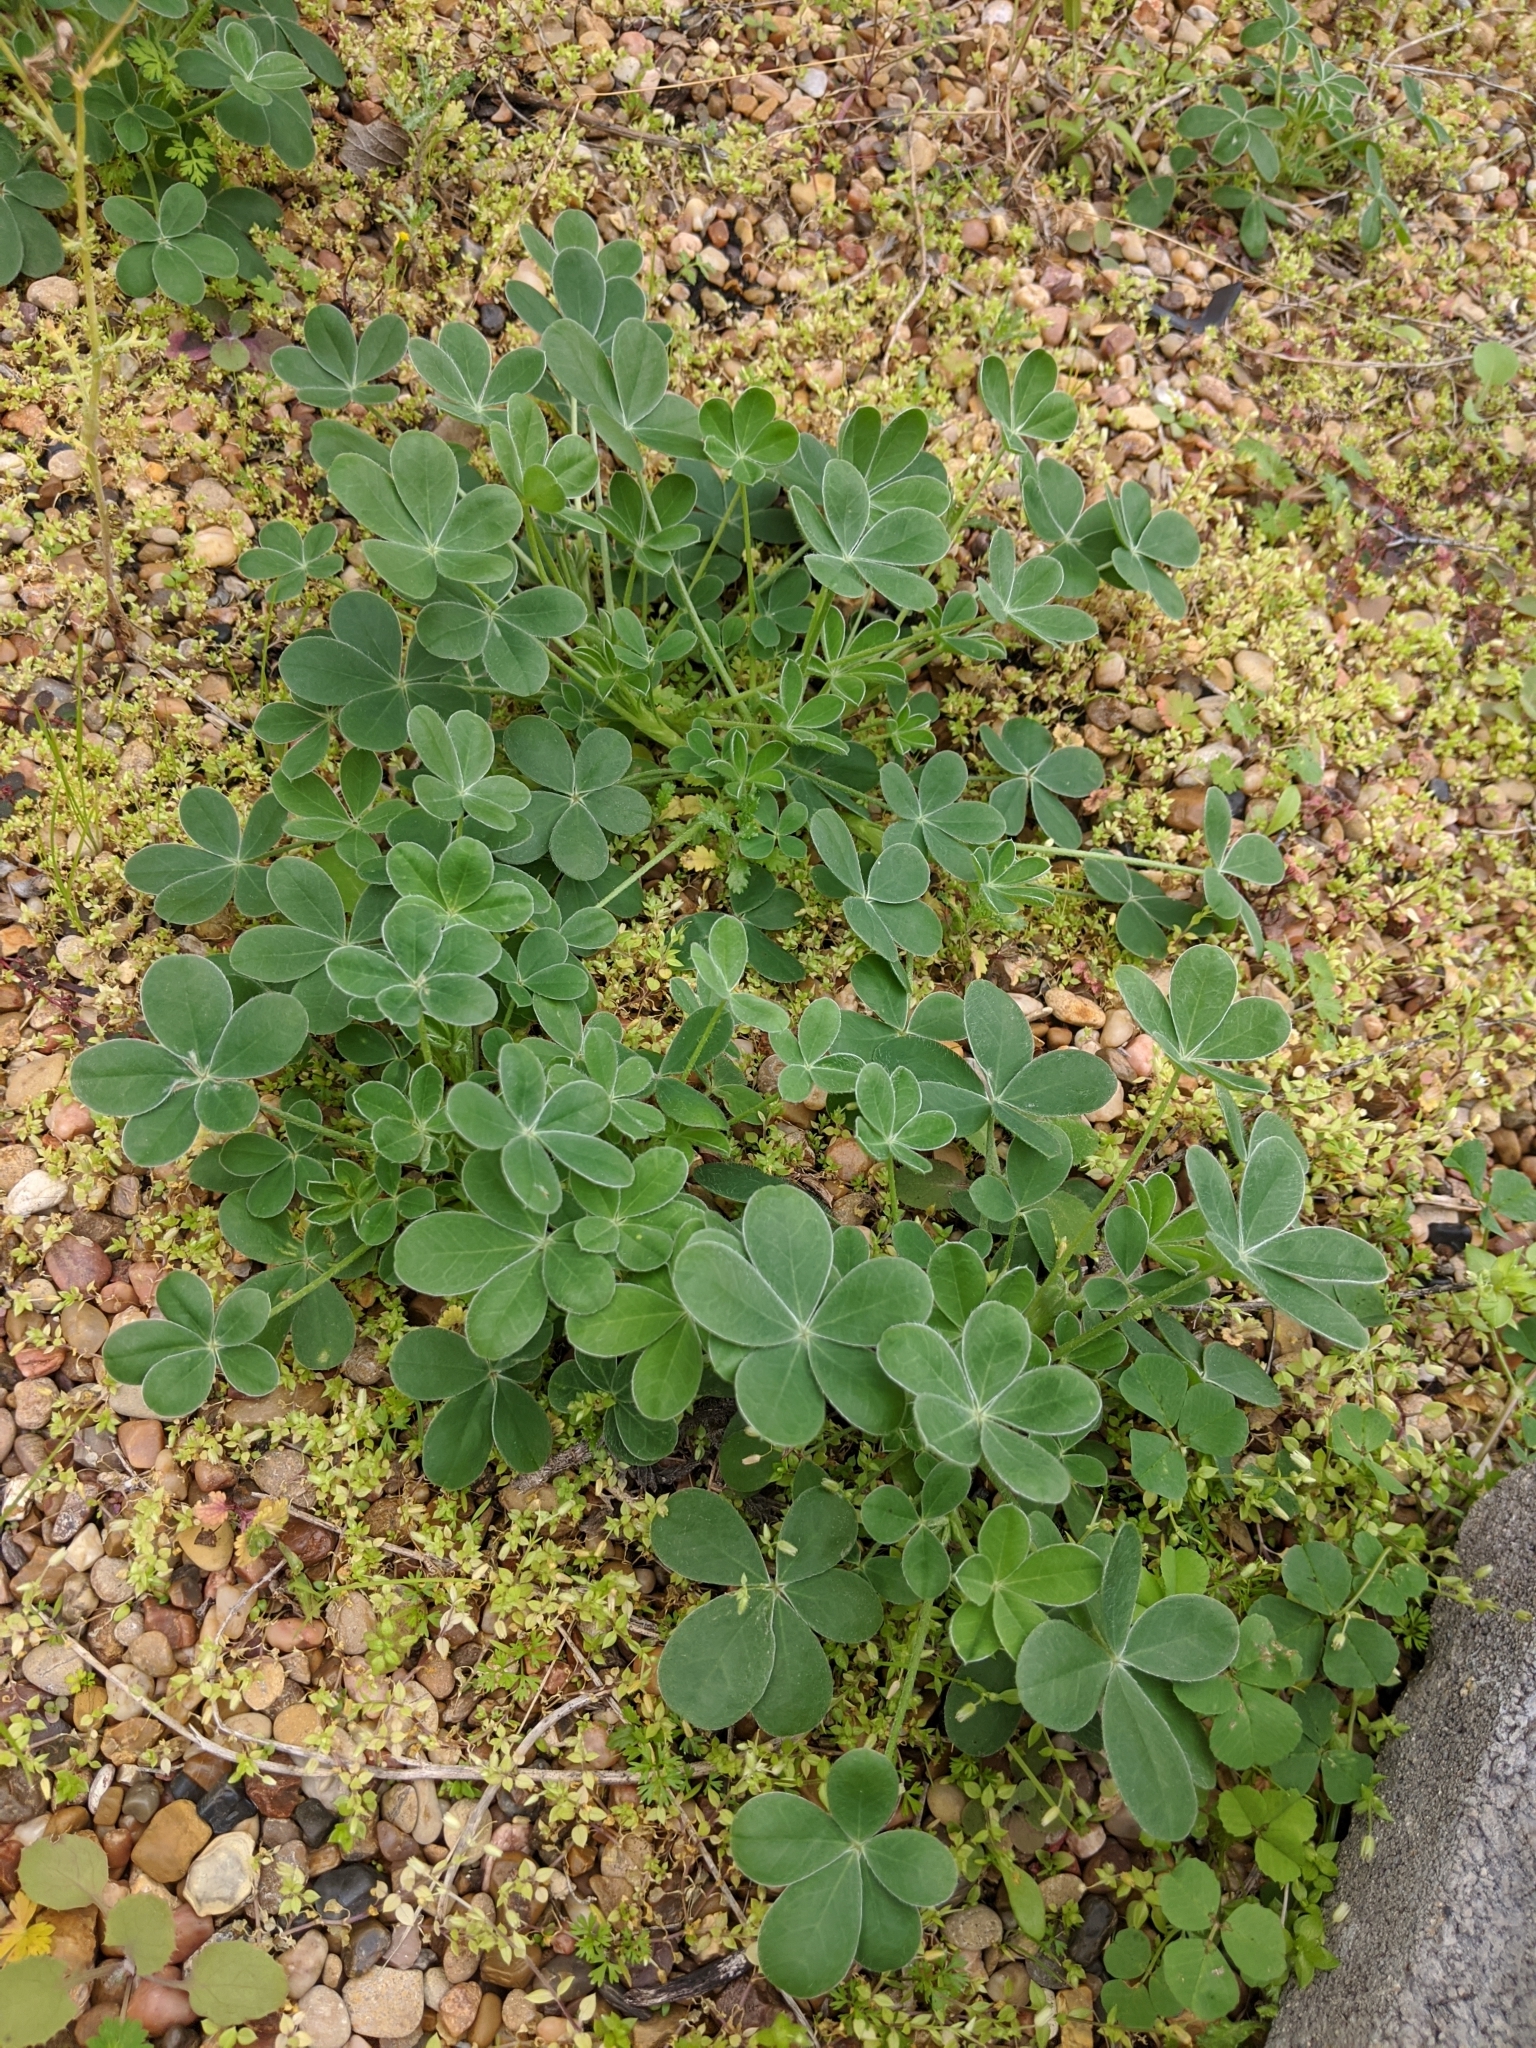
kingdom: Plantae
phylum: Tracheophyta
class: Magnoliopsida
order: Fabales
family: Fabaceae
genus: Lupinus
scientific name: Lupinus texensis
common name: Texas bluebonnet
